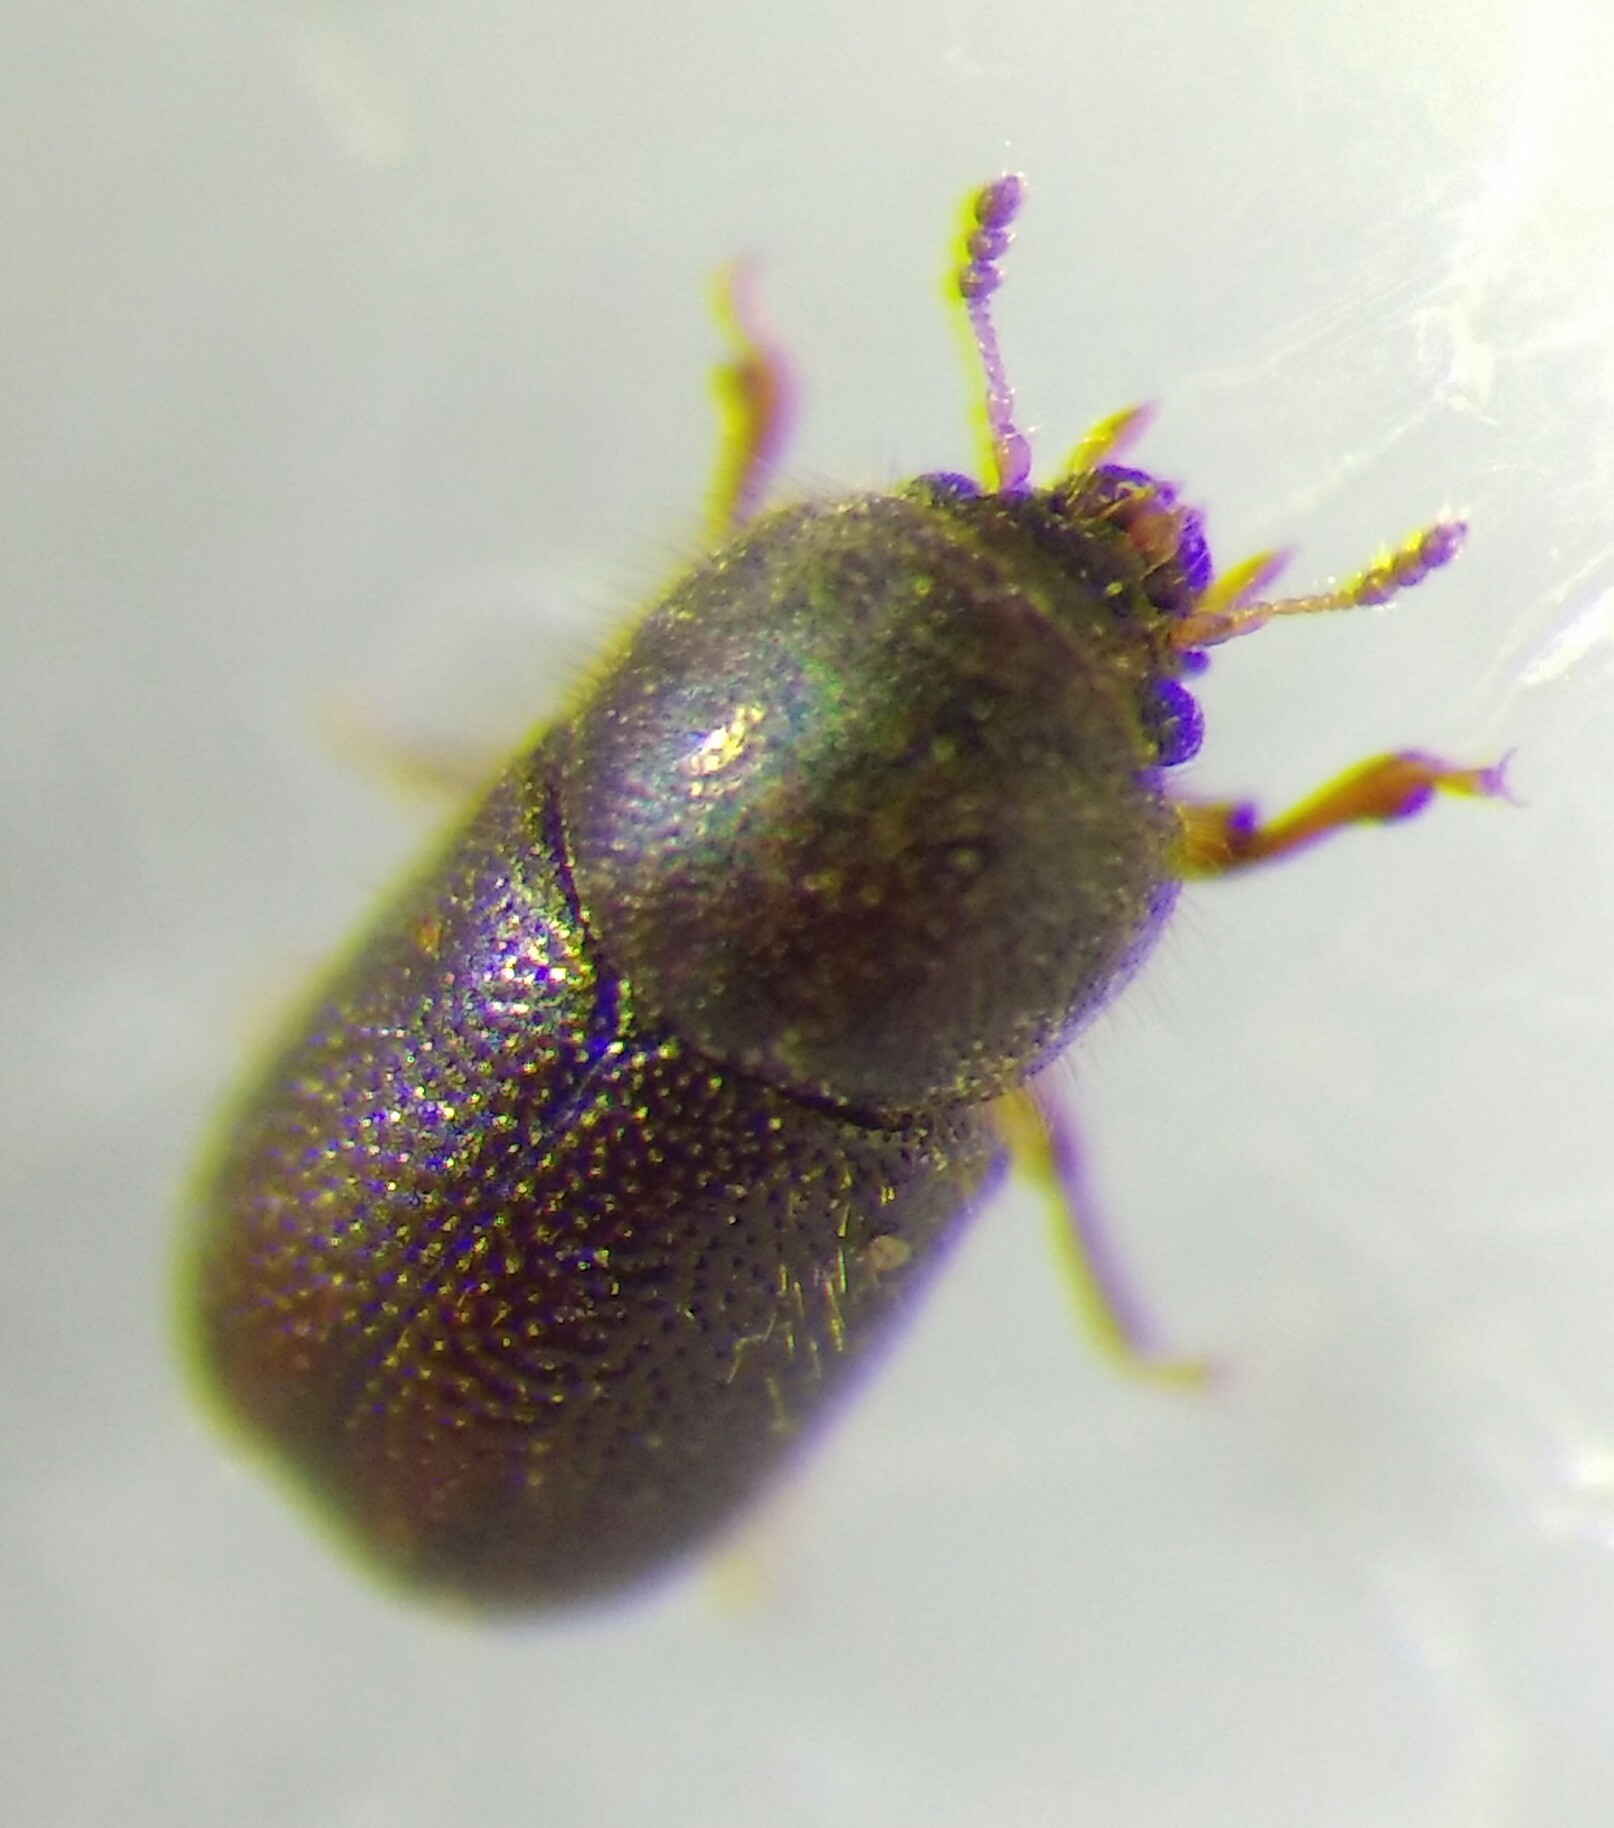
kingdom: Animalia
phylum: Arthropoda
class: Insecta
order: Coleoptera
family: Ciidae
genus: Rhopalodontus
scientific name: Rhopalodontus perforatus
